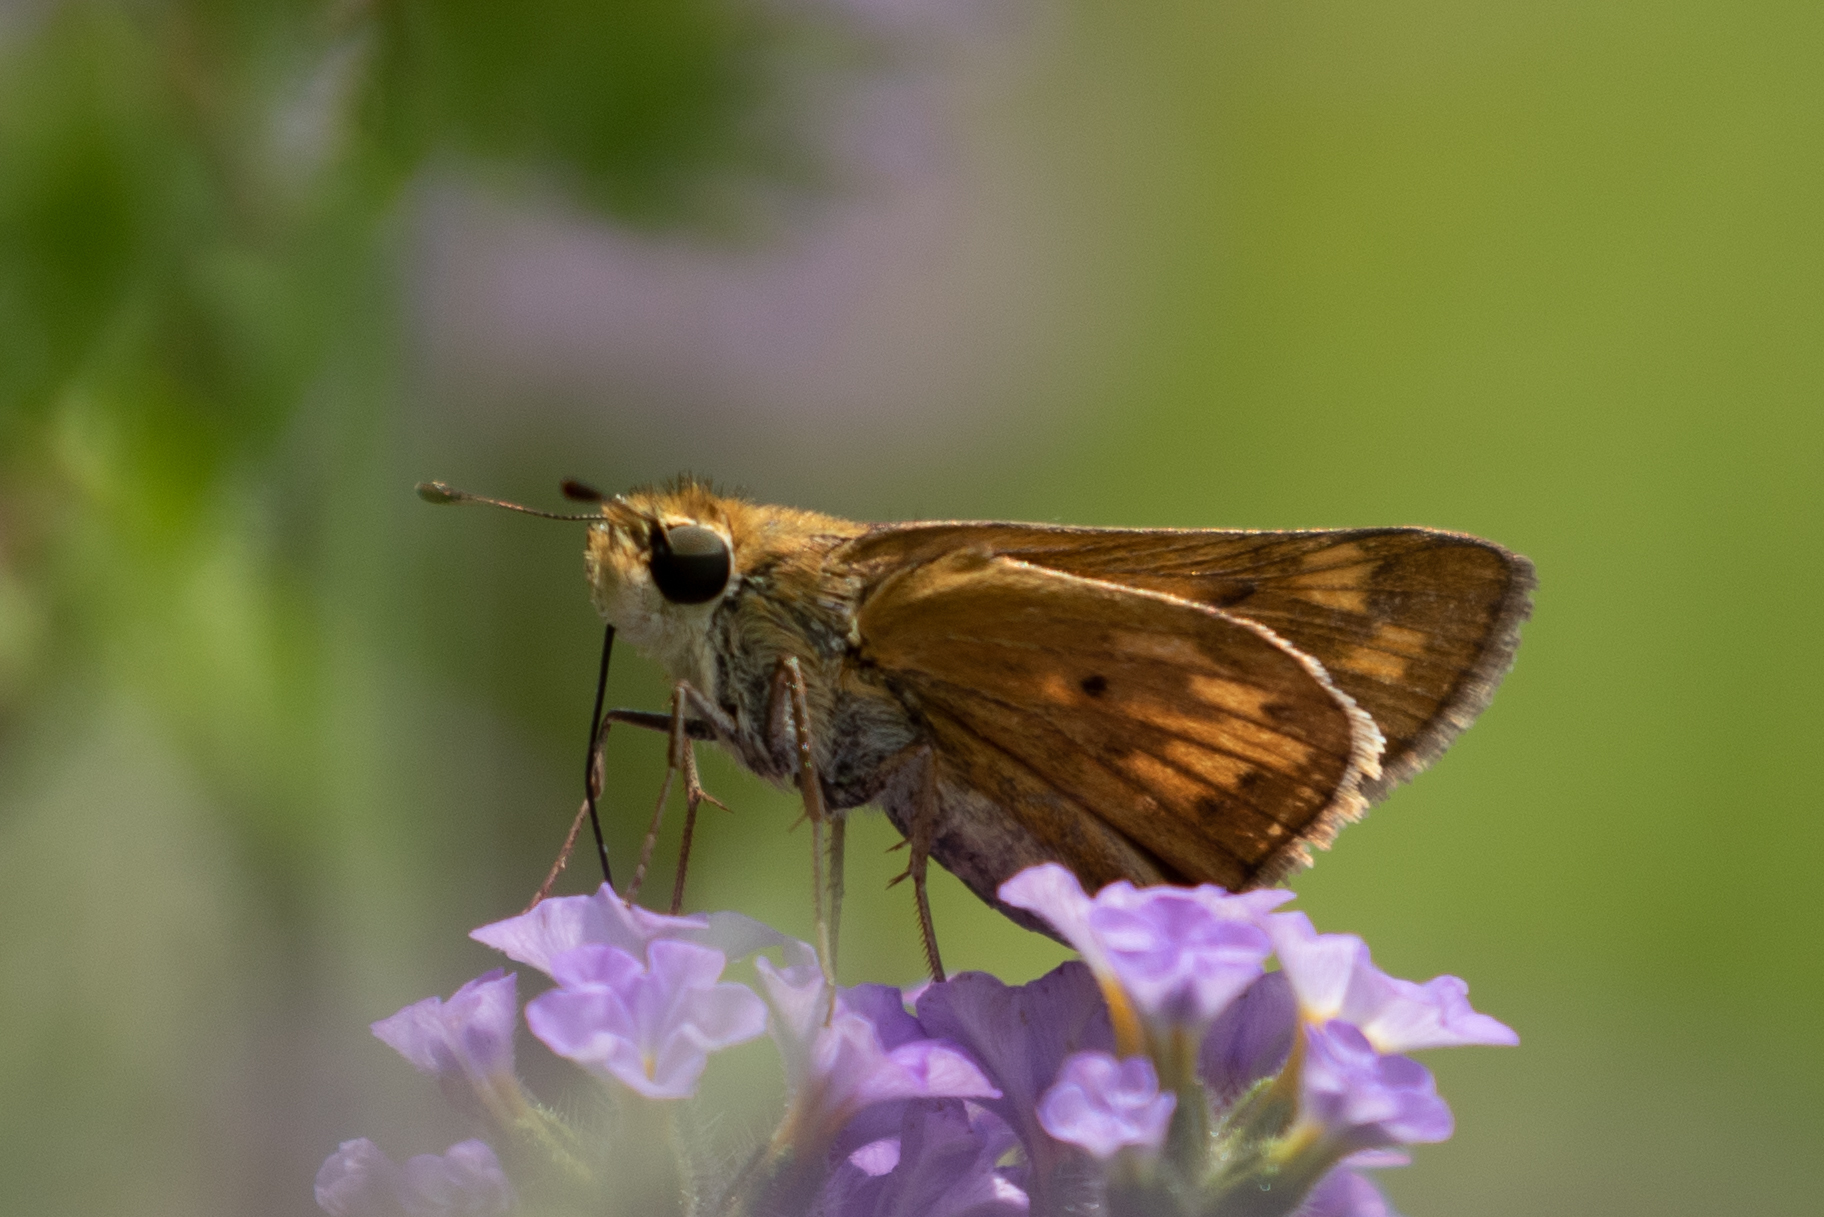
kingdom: Animalia
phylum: Arthropoda
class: Insecta
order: Lepidoptera
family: Hesperiidae
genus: Hylephila
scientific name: Hylephila phyleus
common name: Fiery skipper
